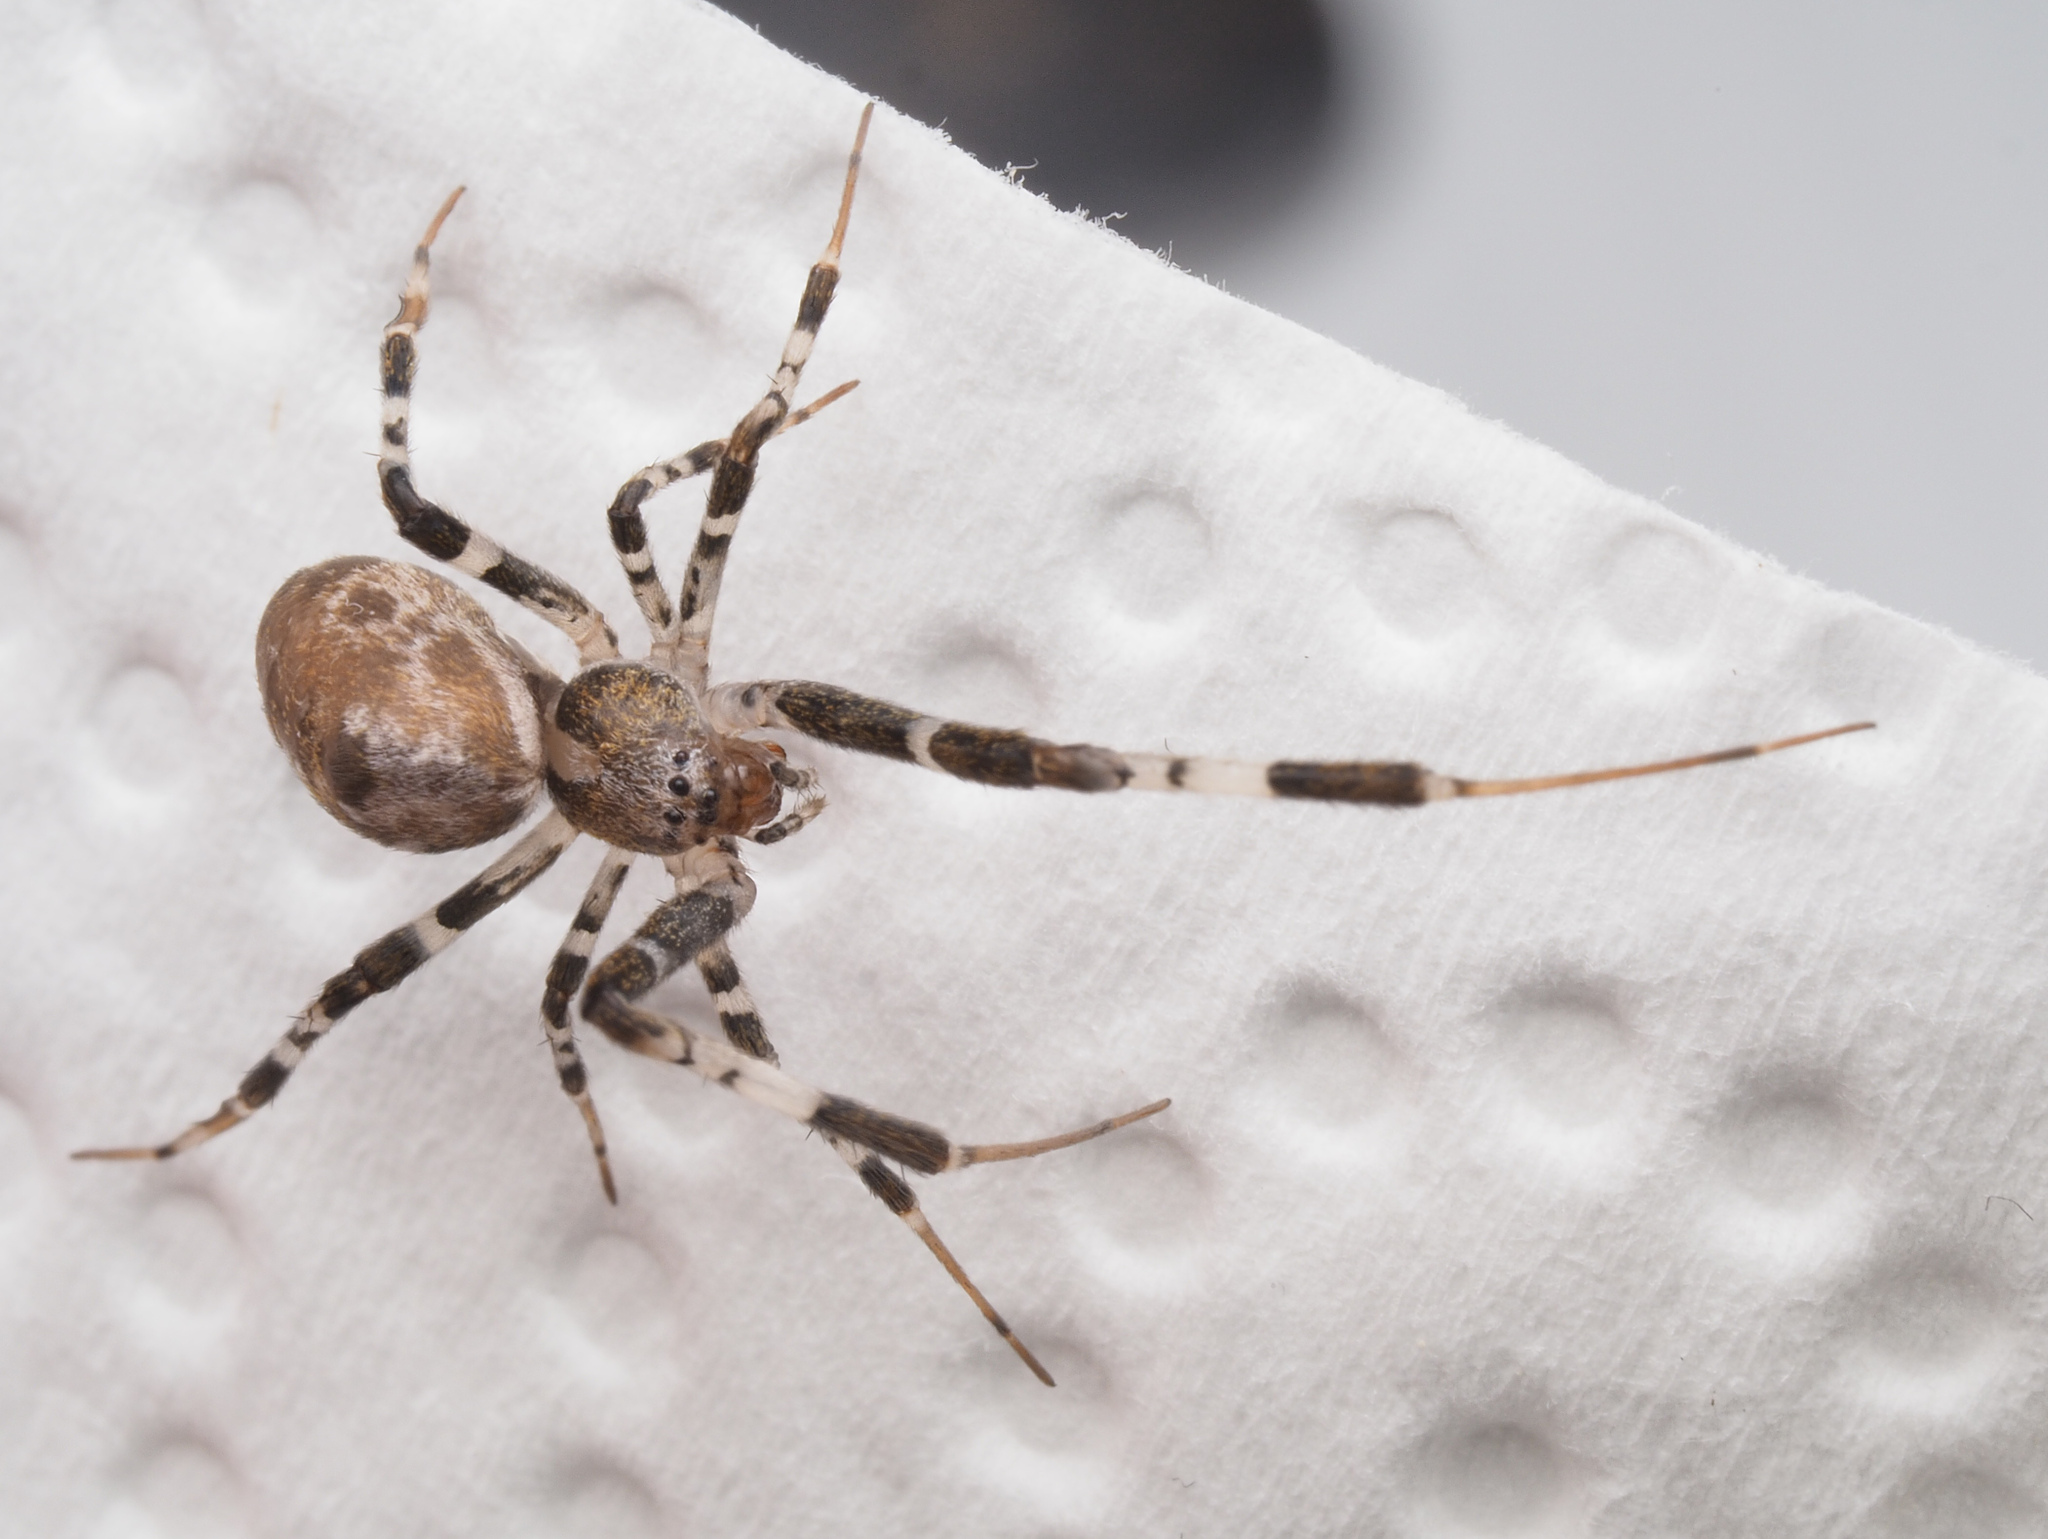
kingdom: Animalia
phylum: Arthropoda
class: Arachnida
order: Araneae
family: Uloboridae
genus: Zosis
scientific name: Zosis geniculata
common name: Hackled orb weavers
